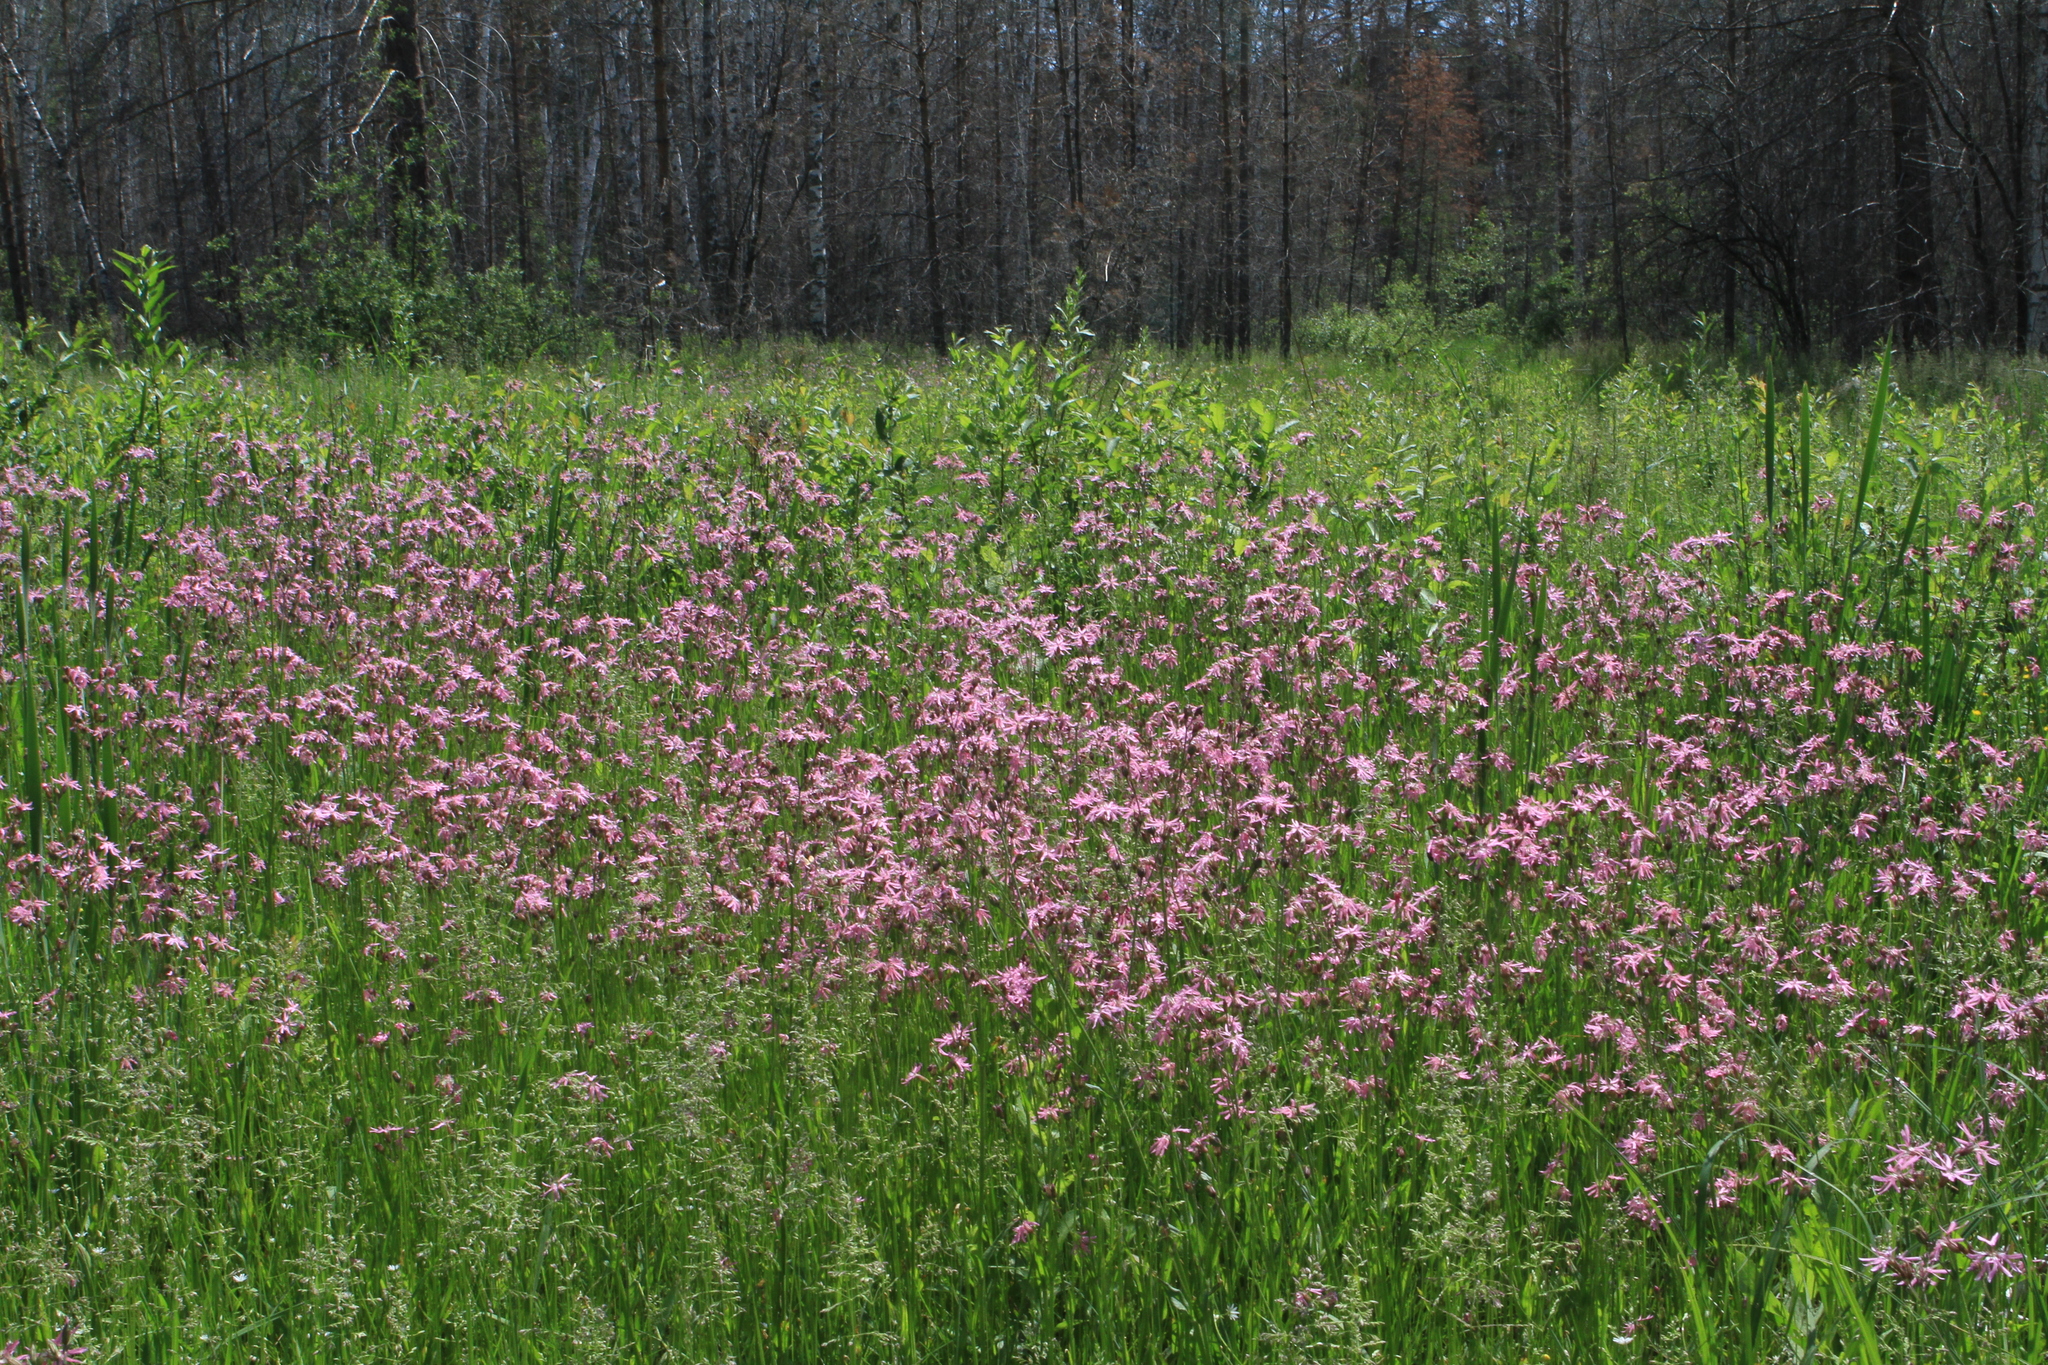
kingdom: Plantae
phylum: Tracheophyta
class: Magnoliopsida
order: Caryophyllales
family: Caryophyllaceae
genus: Silene
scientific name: Silene flos-cuculi
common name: Ragged-robin
